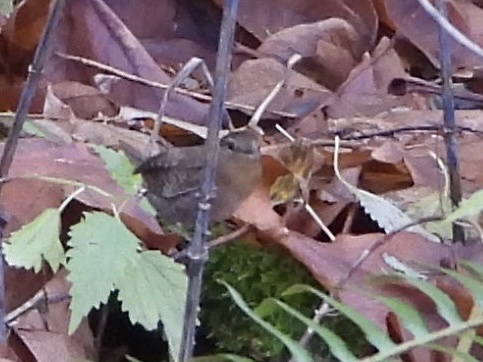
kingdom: Animalia
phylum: Chordata
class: Aves
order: Passeriformes
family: Troglodytidae
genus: Troglodytes
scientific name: Troglodytes pacificus
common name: Pacific wren
